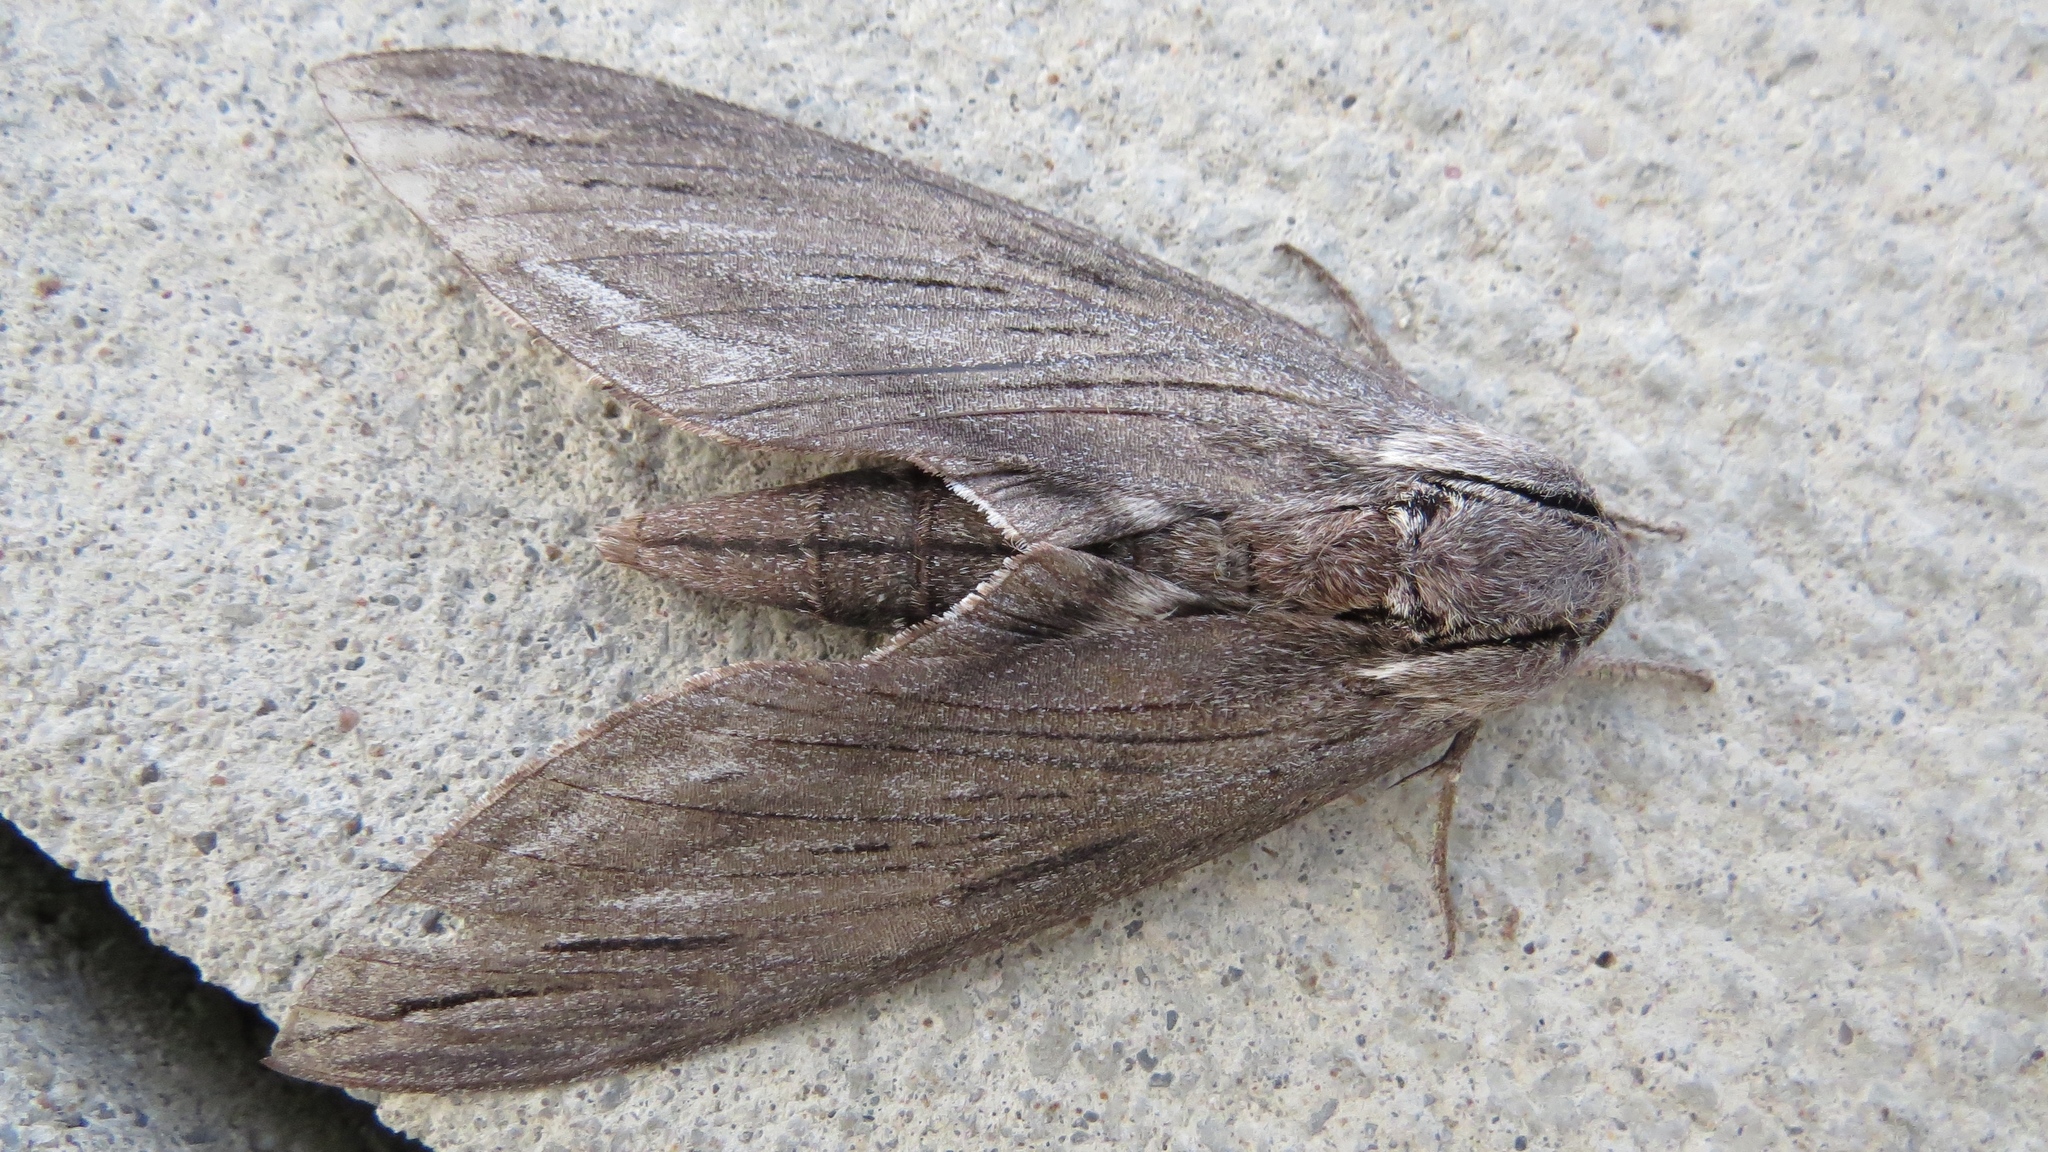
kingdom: Animalia
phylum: Arthropoda
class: Insecta
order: Lepidoptera
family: Sphingidae
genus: Sphinx
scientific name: Sphinx chersis
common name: Great ash sphinx
